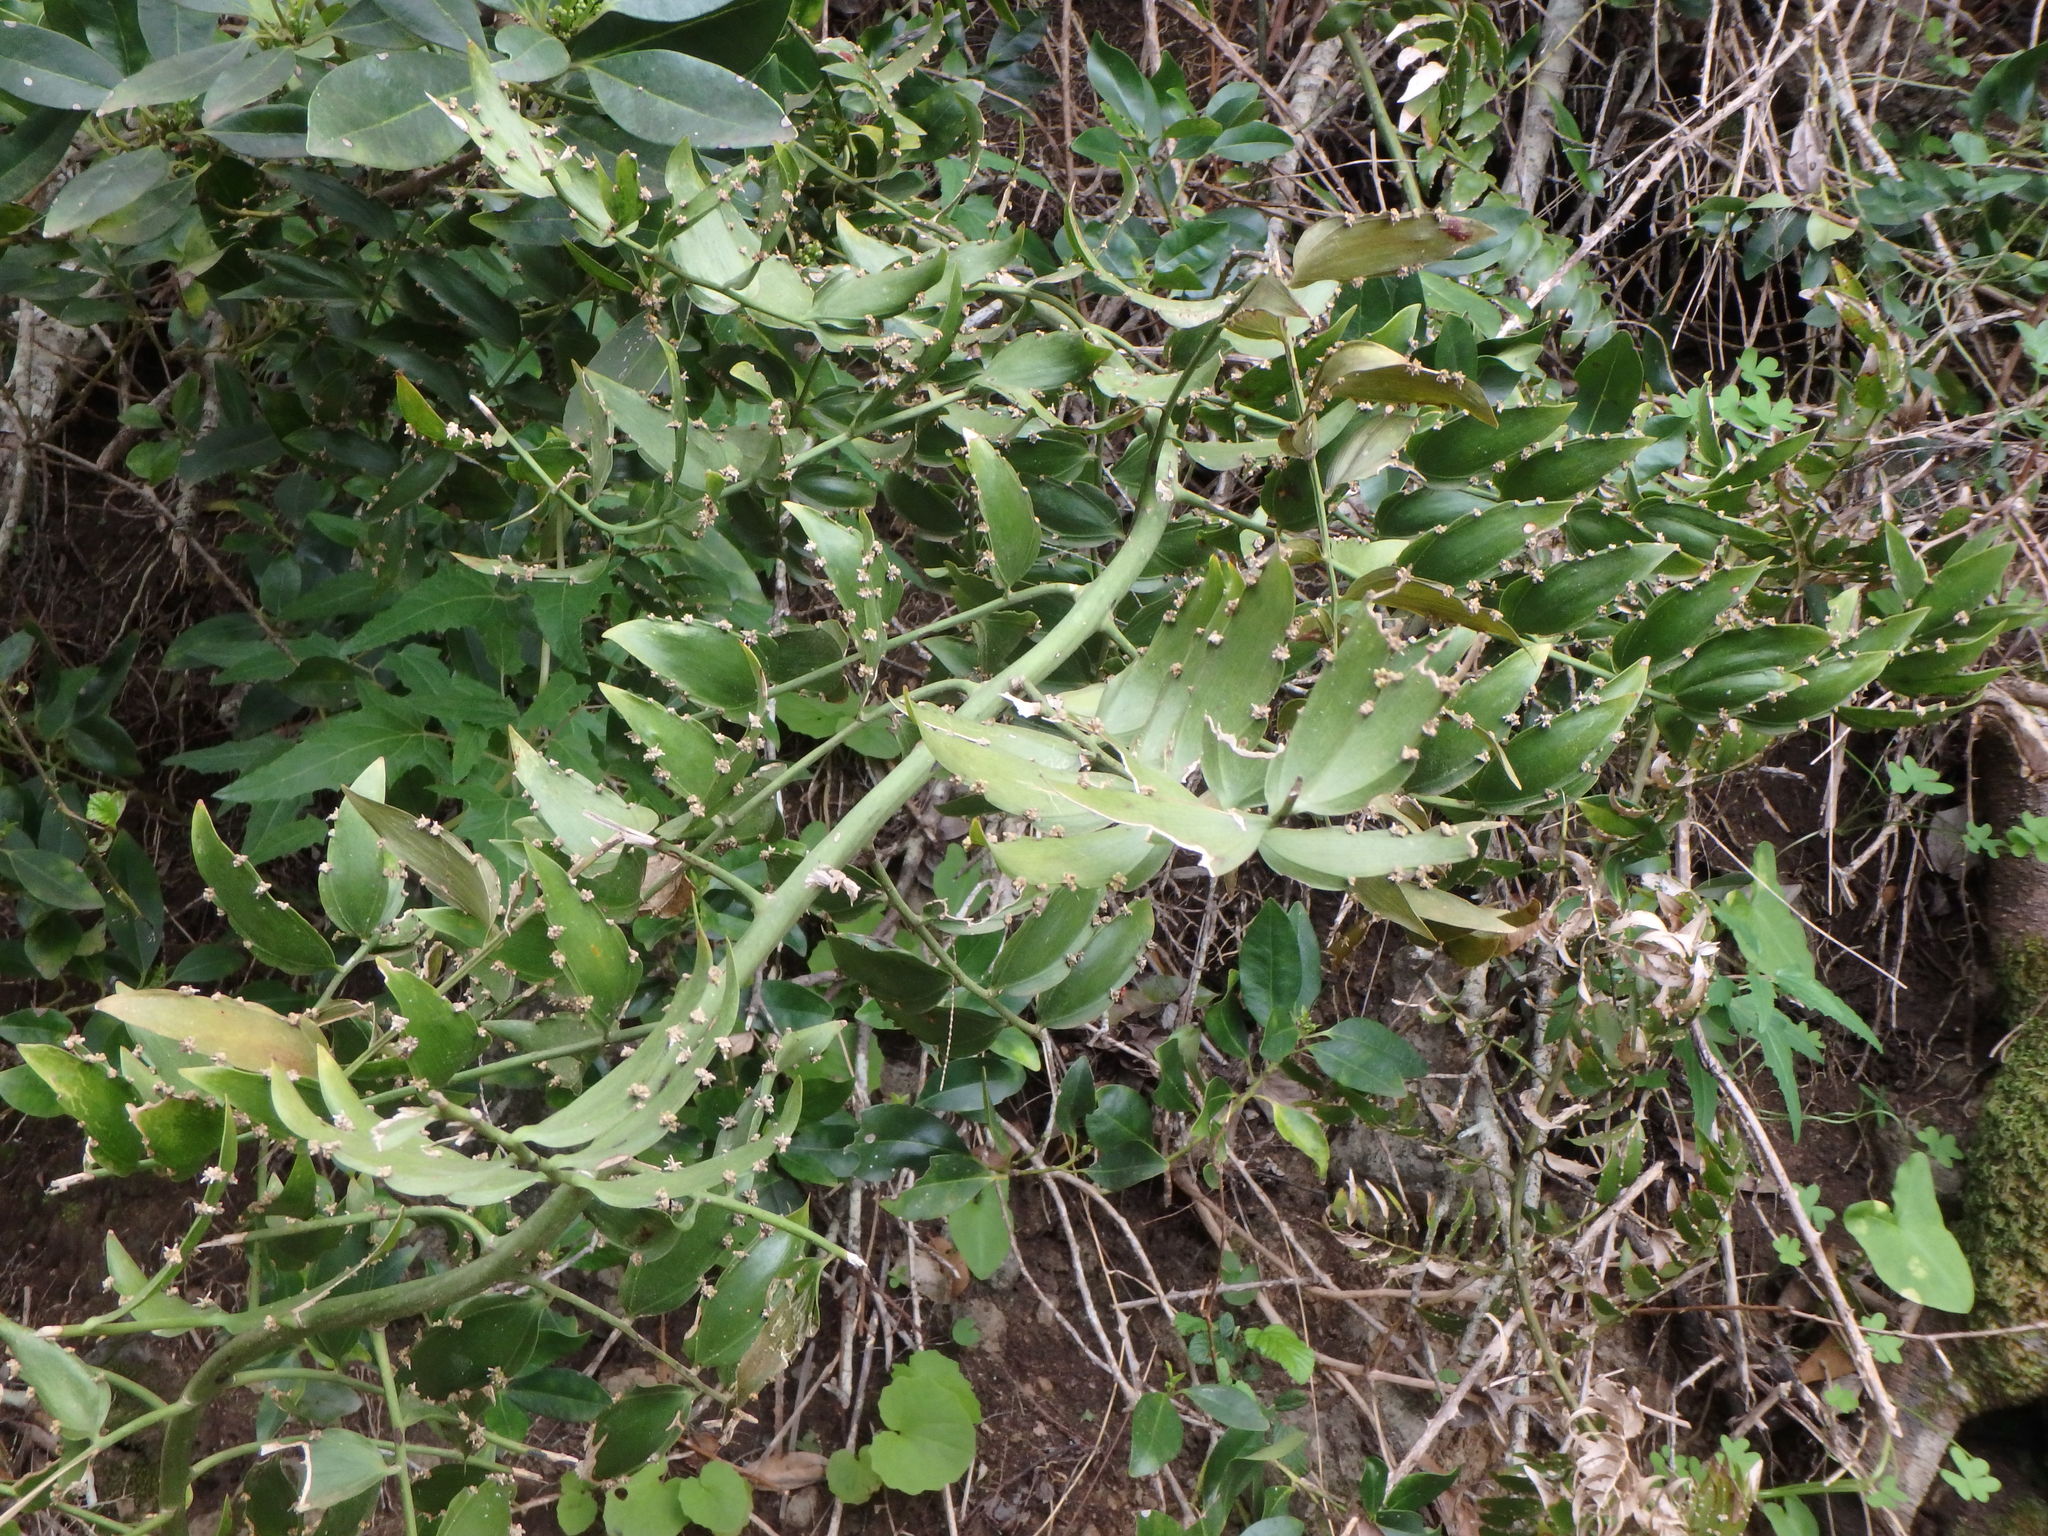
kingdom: Plantae
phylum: Tracheophyta
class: Liliopsida
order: Asparagales
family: Asparagaceae
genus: Semele
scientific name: Semele androgyna
